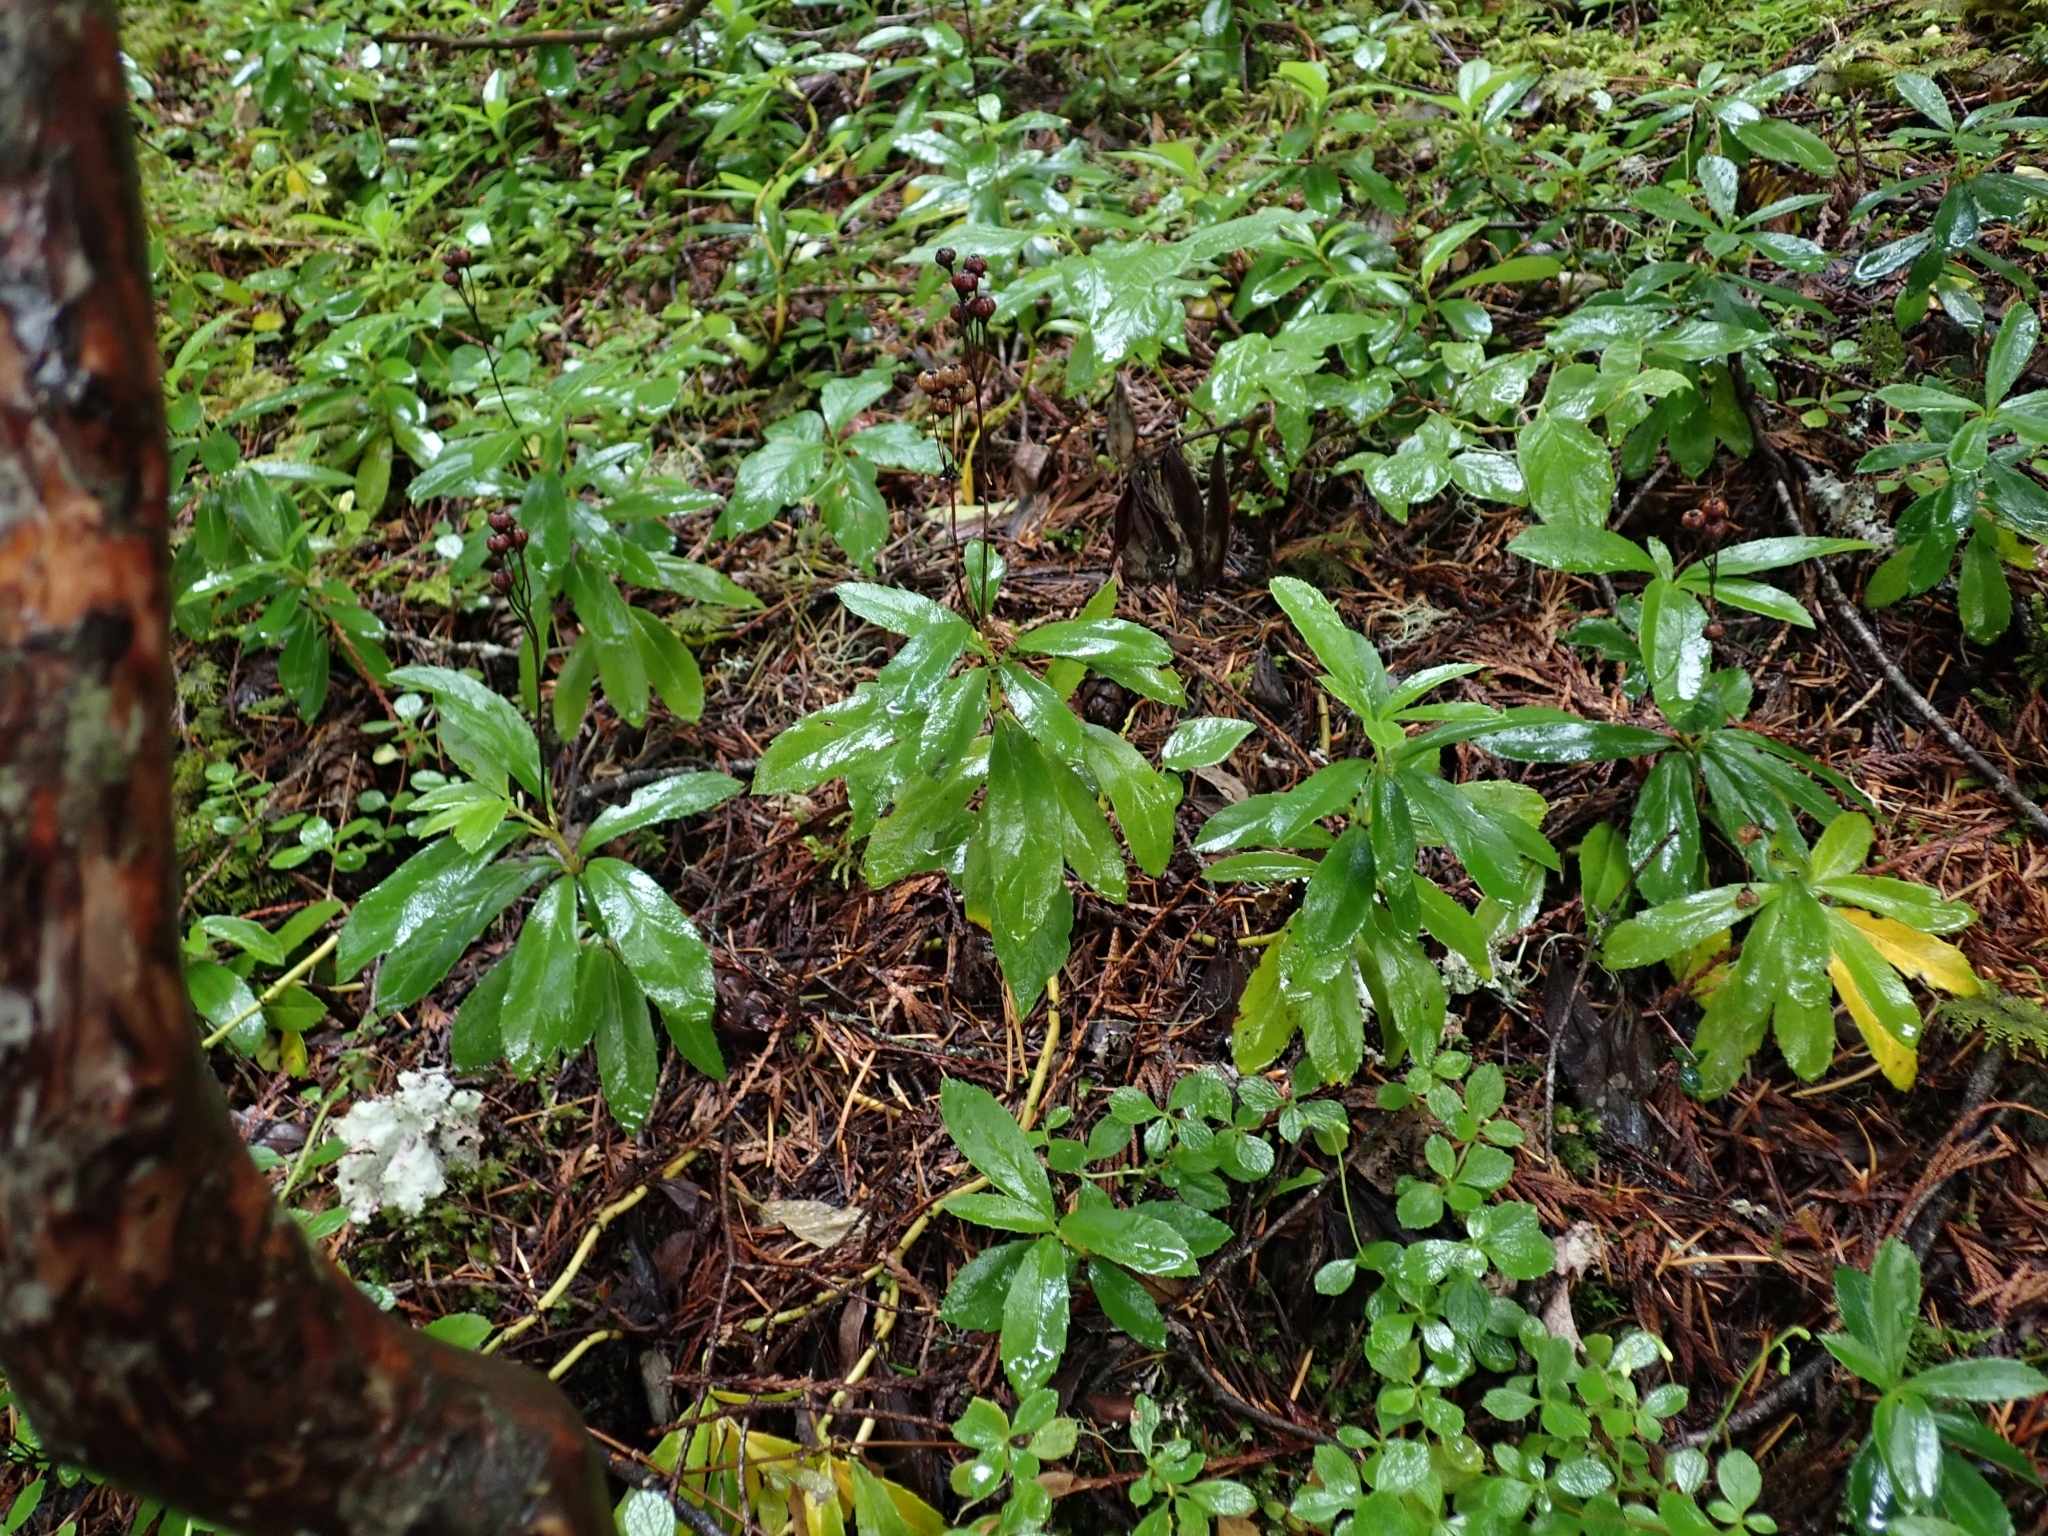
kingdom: Plantae
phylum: Tracheophyta
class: Magnoliopsida
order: Ericales
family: Ericaceae
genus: Chimaphila
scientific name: Chimaphila umbellata
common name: Pipsissewa
